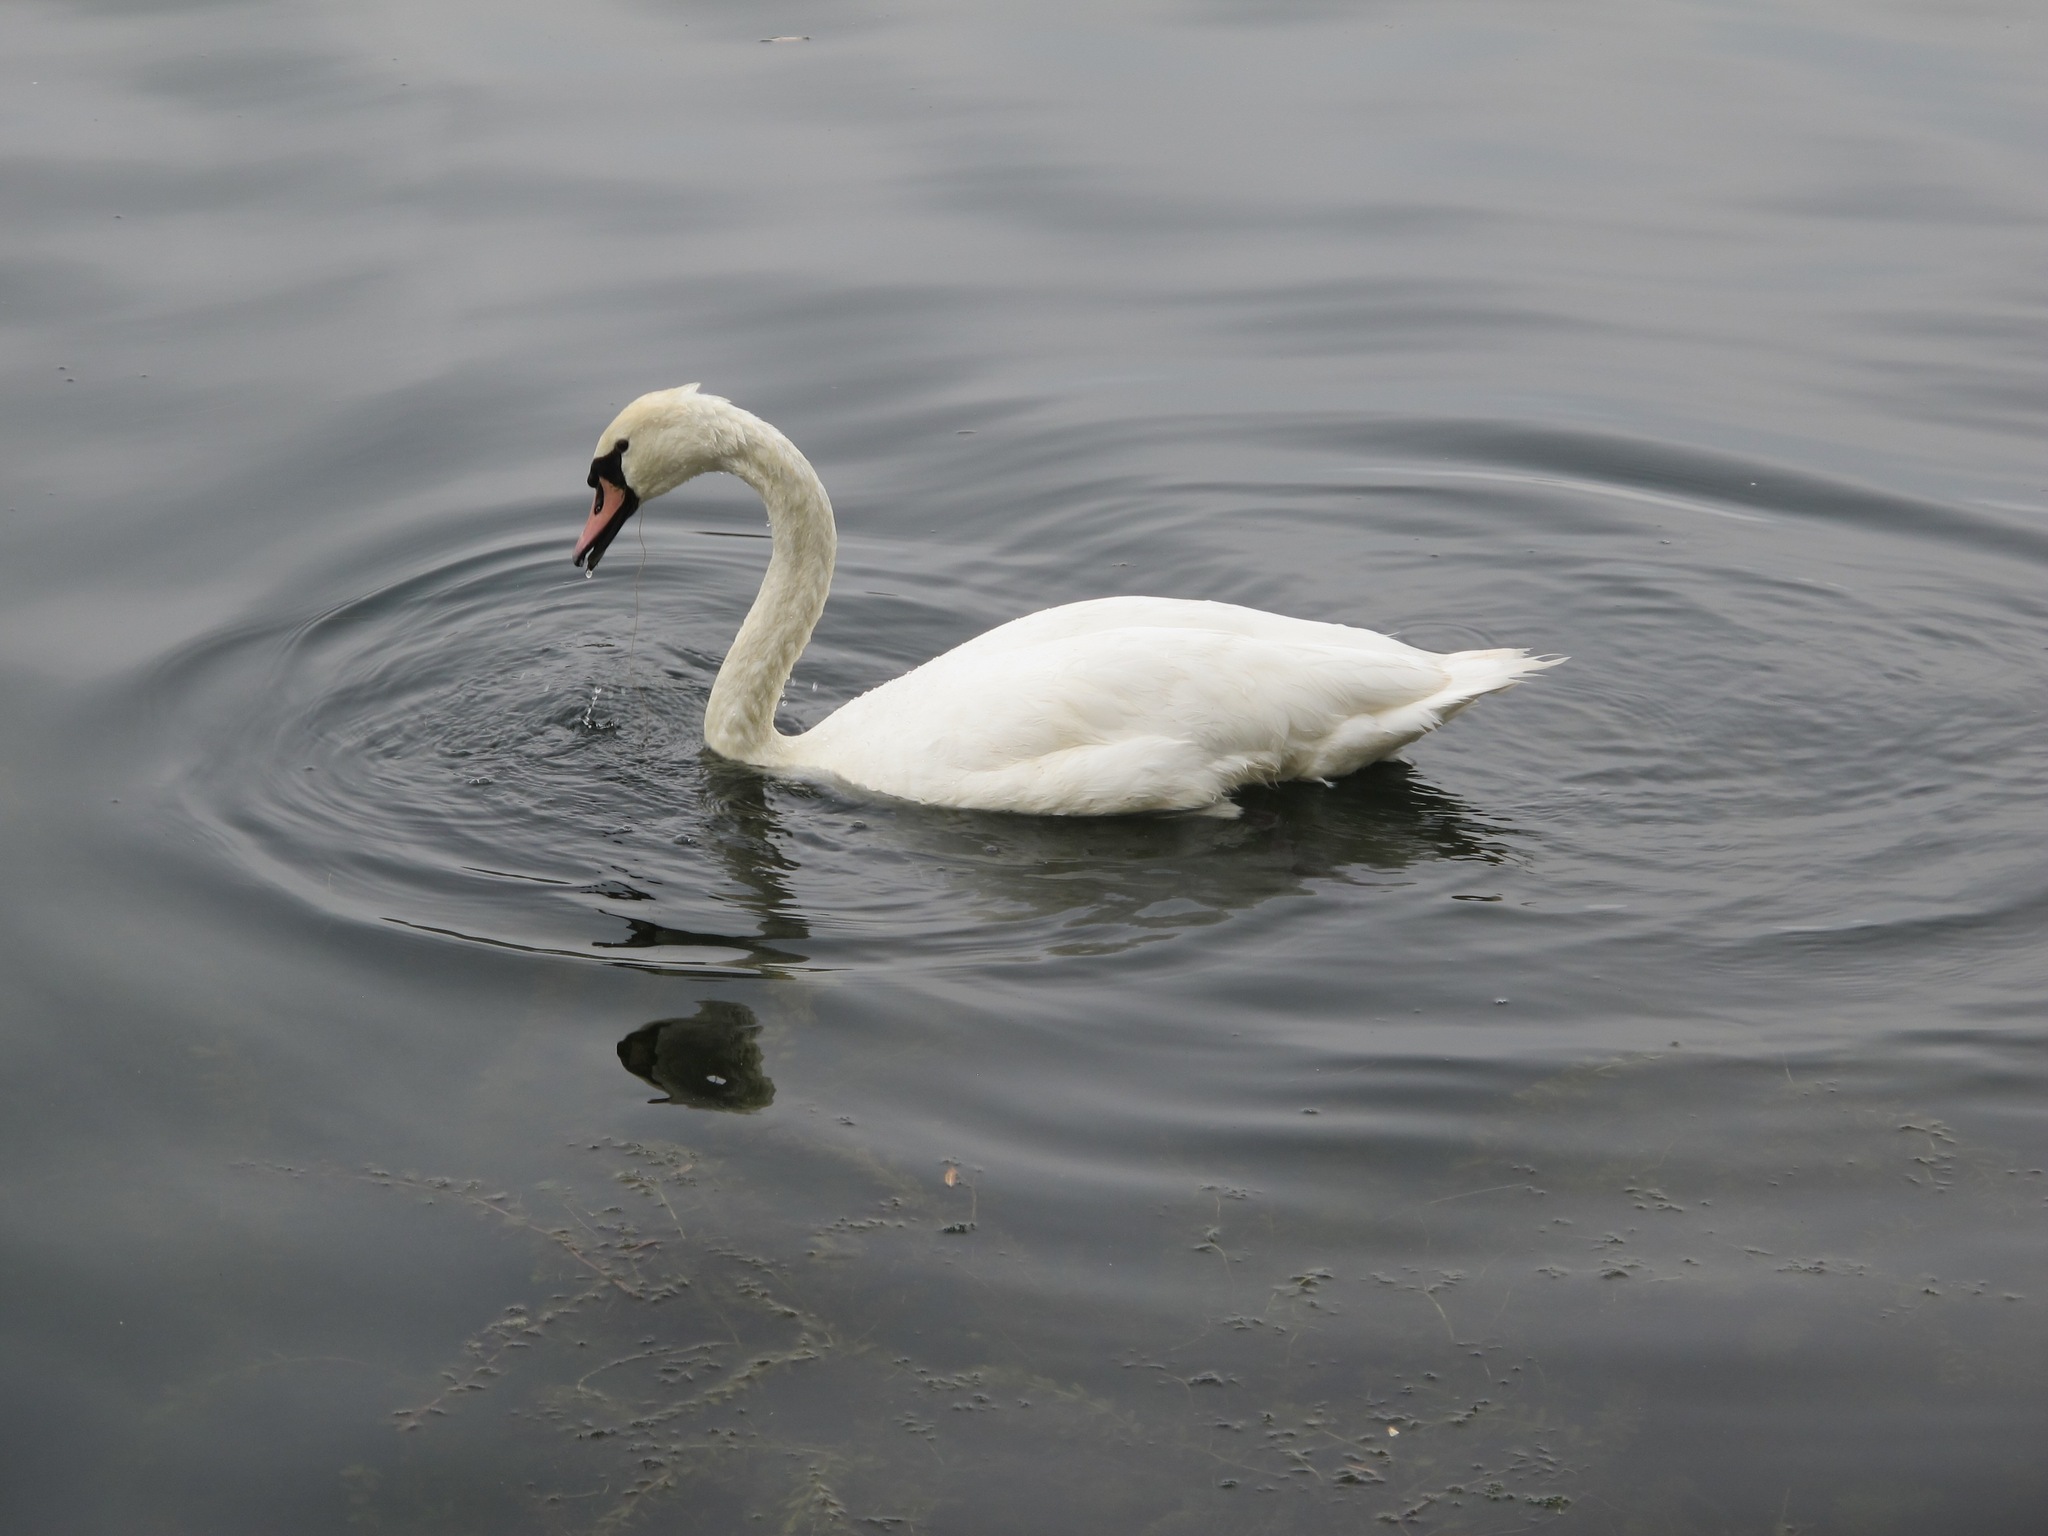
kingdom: Animalia
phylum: Chordata
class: Aves
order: Anseriformes
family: Anatidae
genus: Cygnus
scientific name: Cygnus olor
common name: Mute swan
